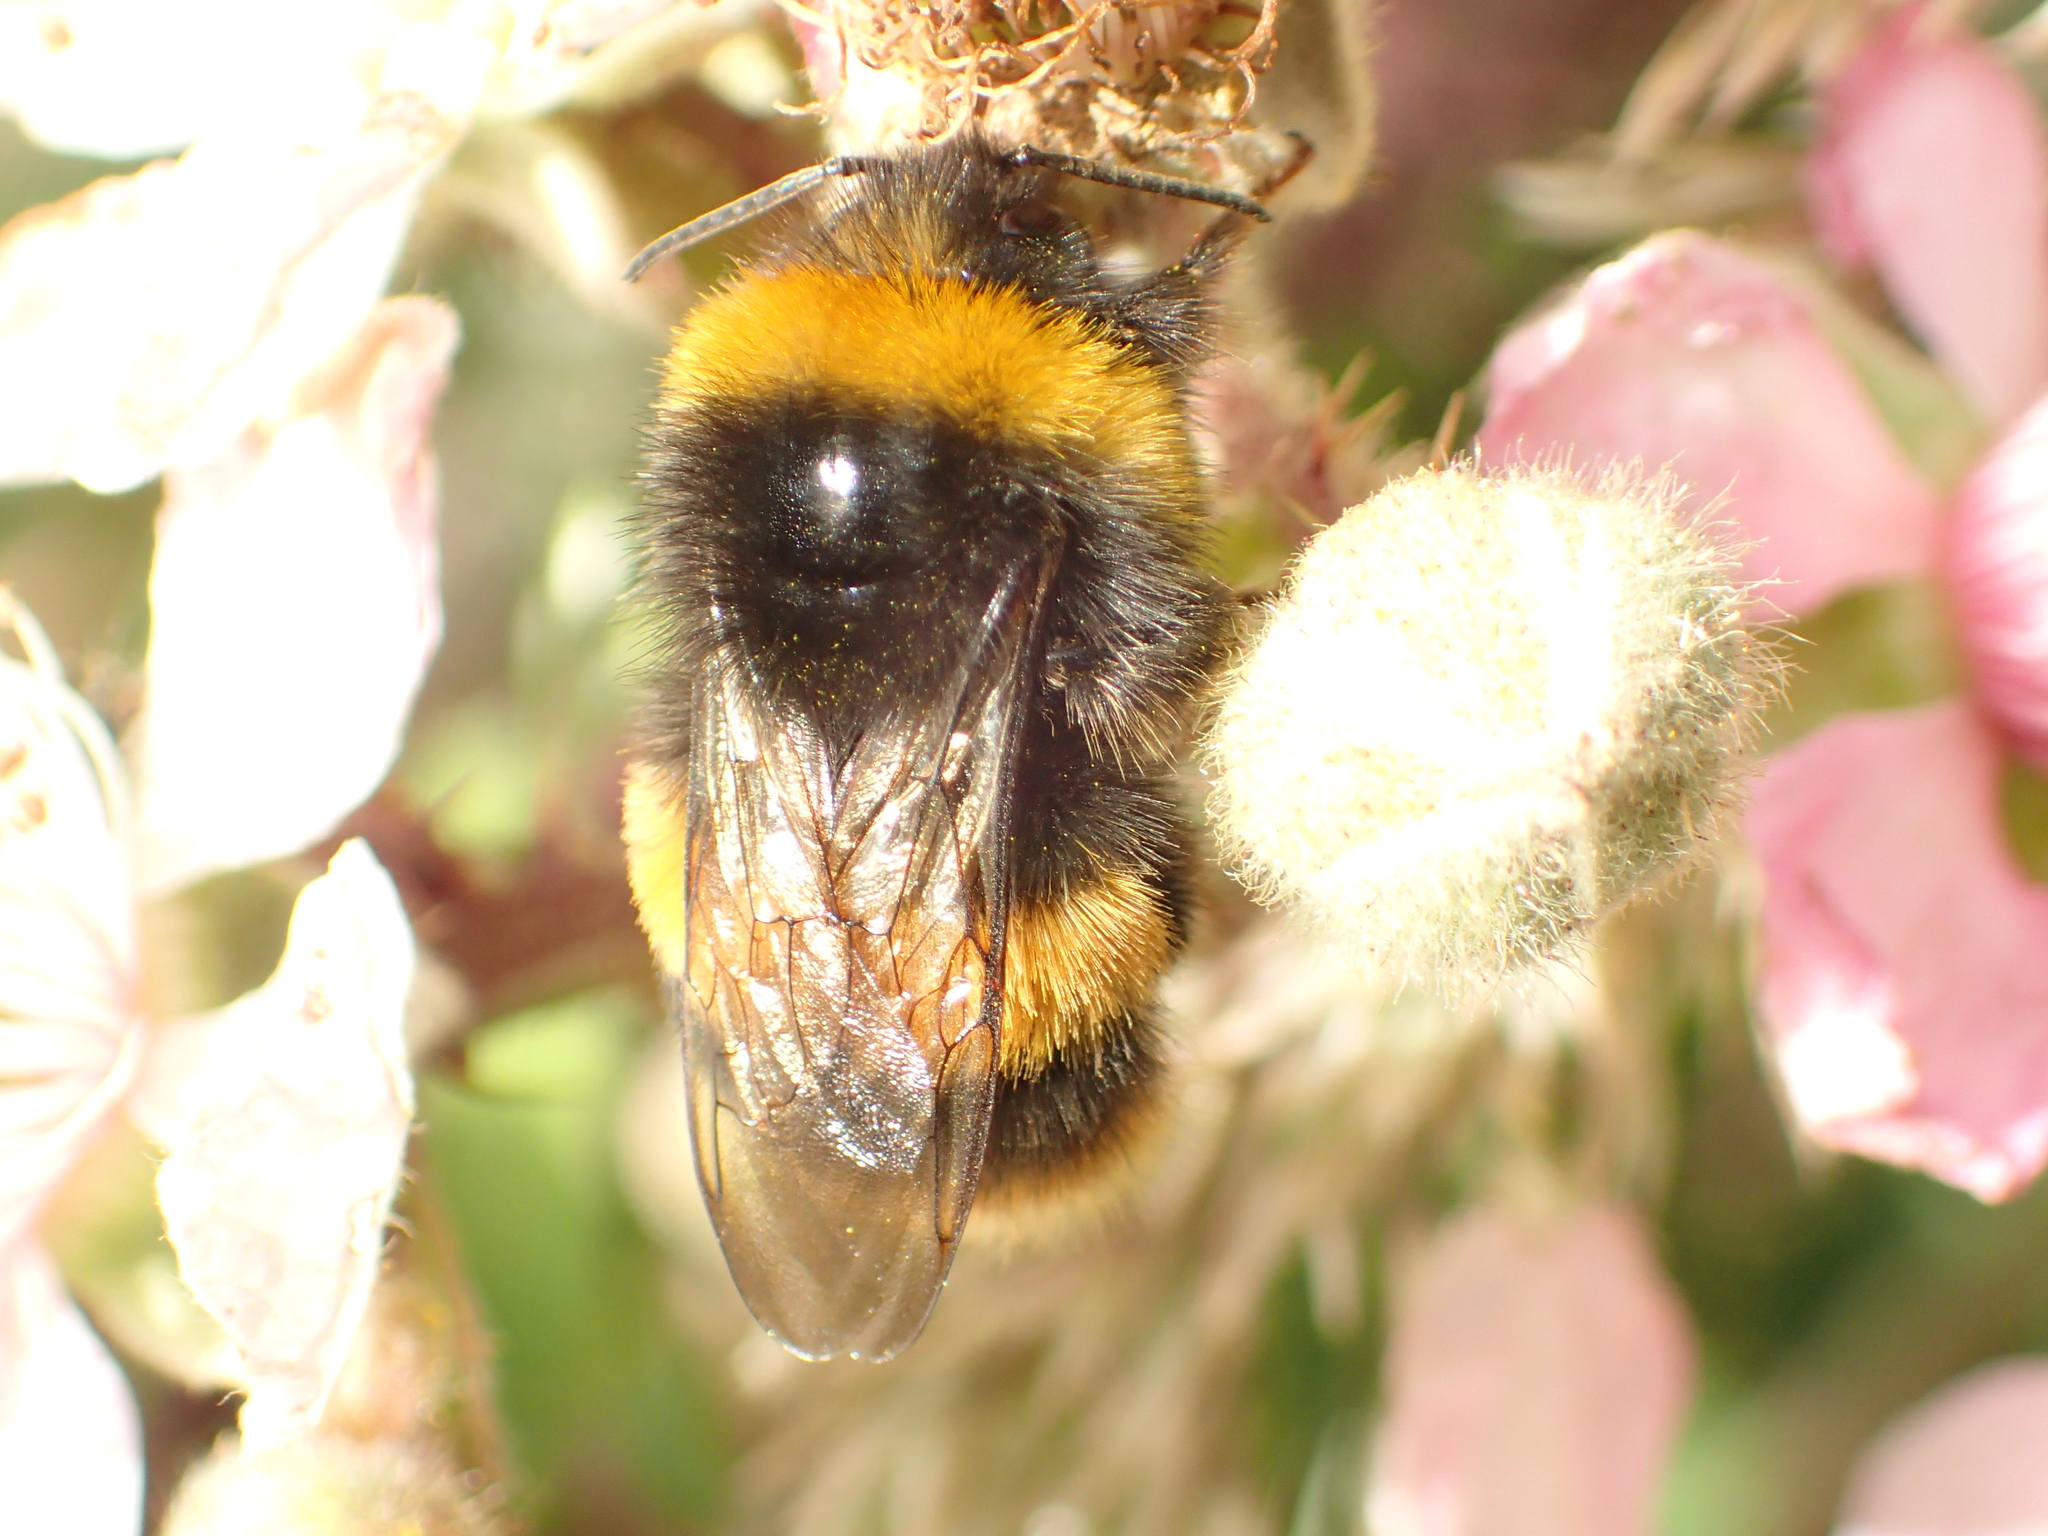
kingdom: Animalia
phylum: Arthropoda
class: Insecta
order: Hymenoptera
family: Apidae
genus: Bombus
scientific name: Bombus terrestris
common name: Buff-tailed bumblebee
